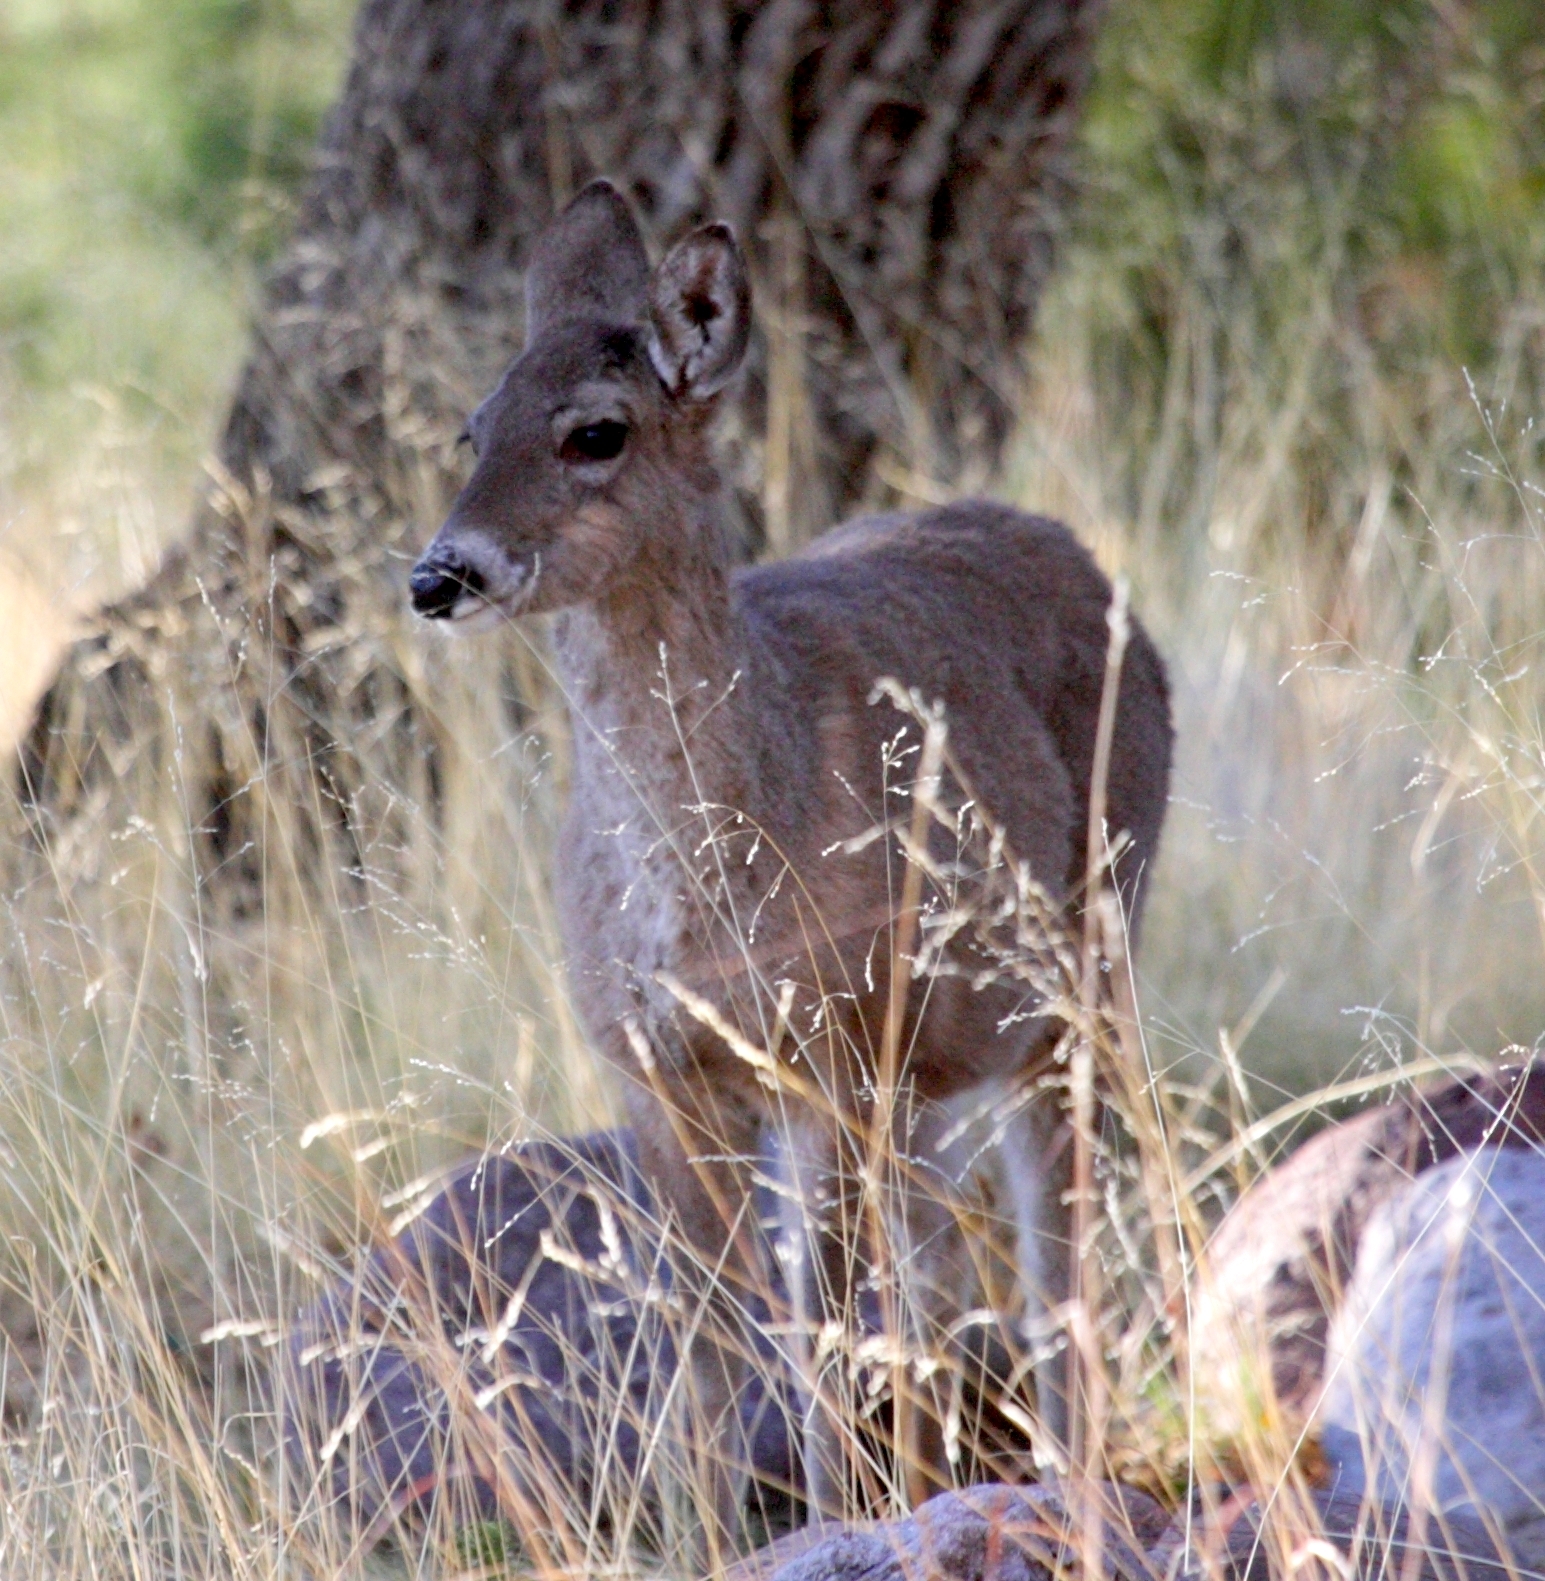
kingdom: Animalia
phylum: Chordata
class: Mammalia
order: Artiodactyla
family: Cervidae
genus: Odocoileus
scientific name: Odocoileus virginianus
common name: White-tailed deer
